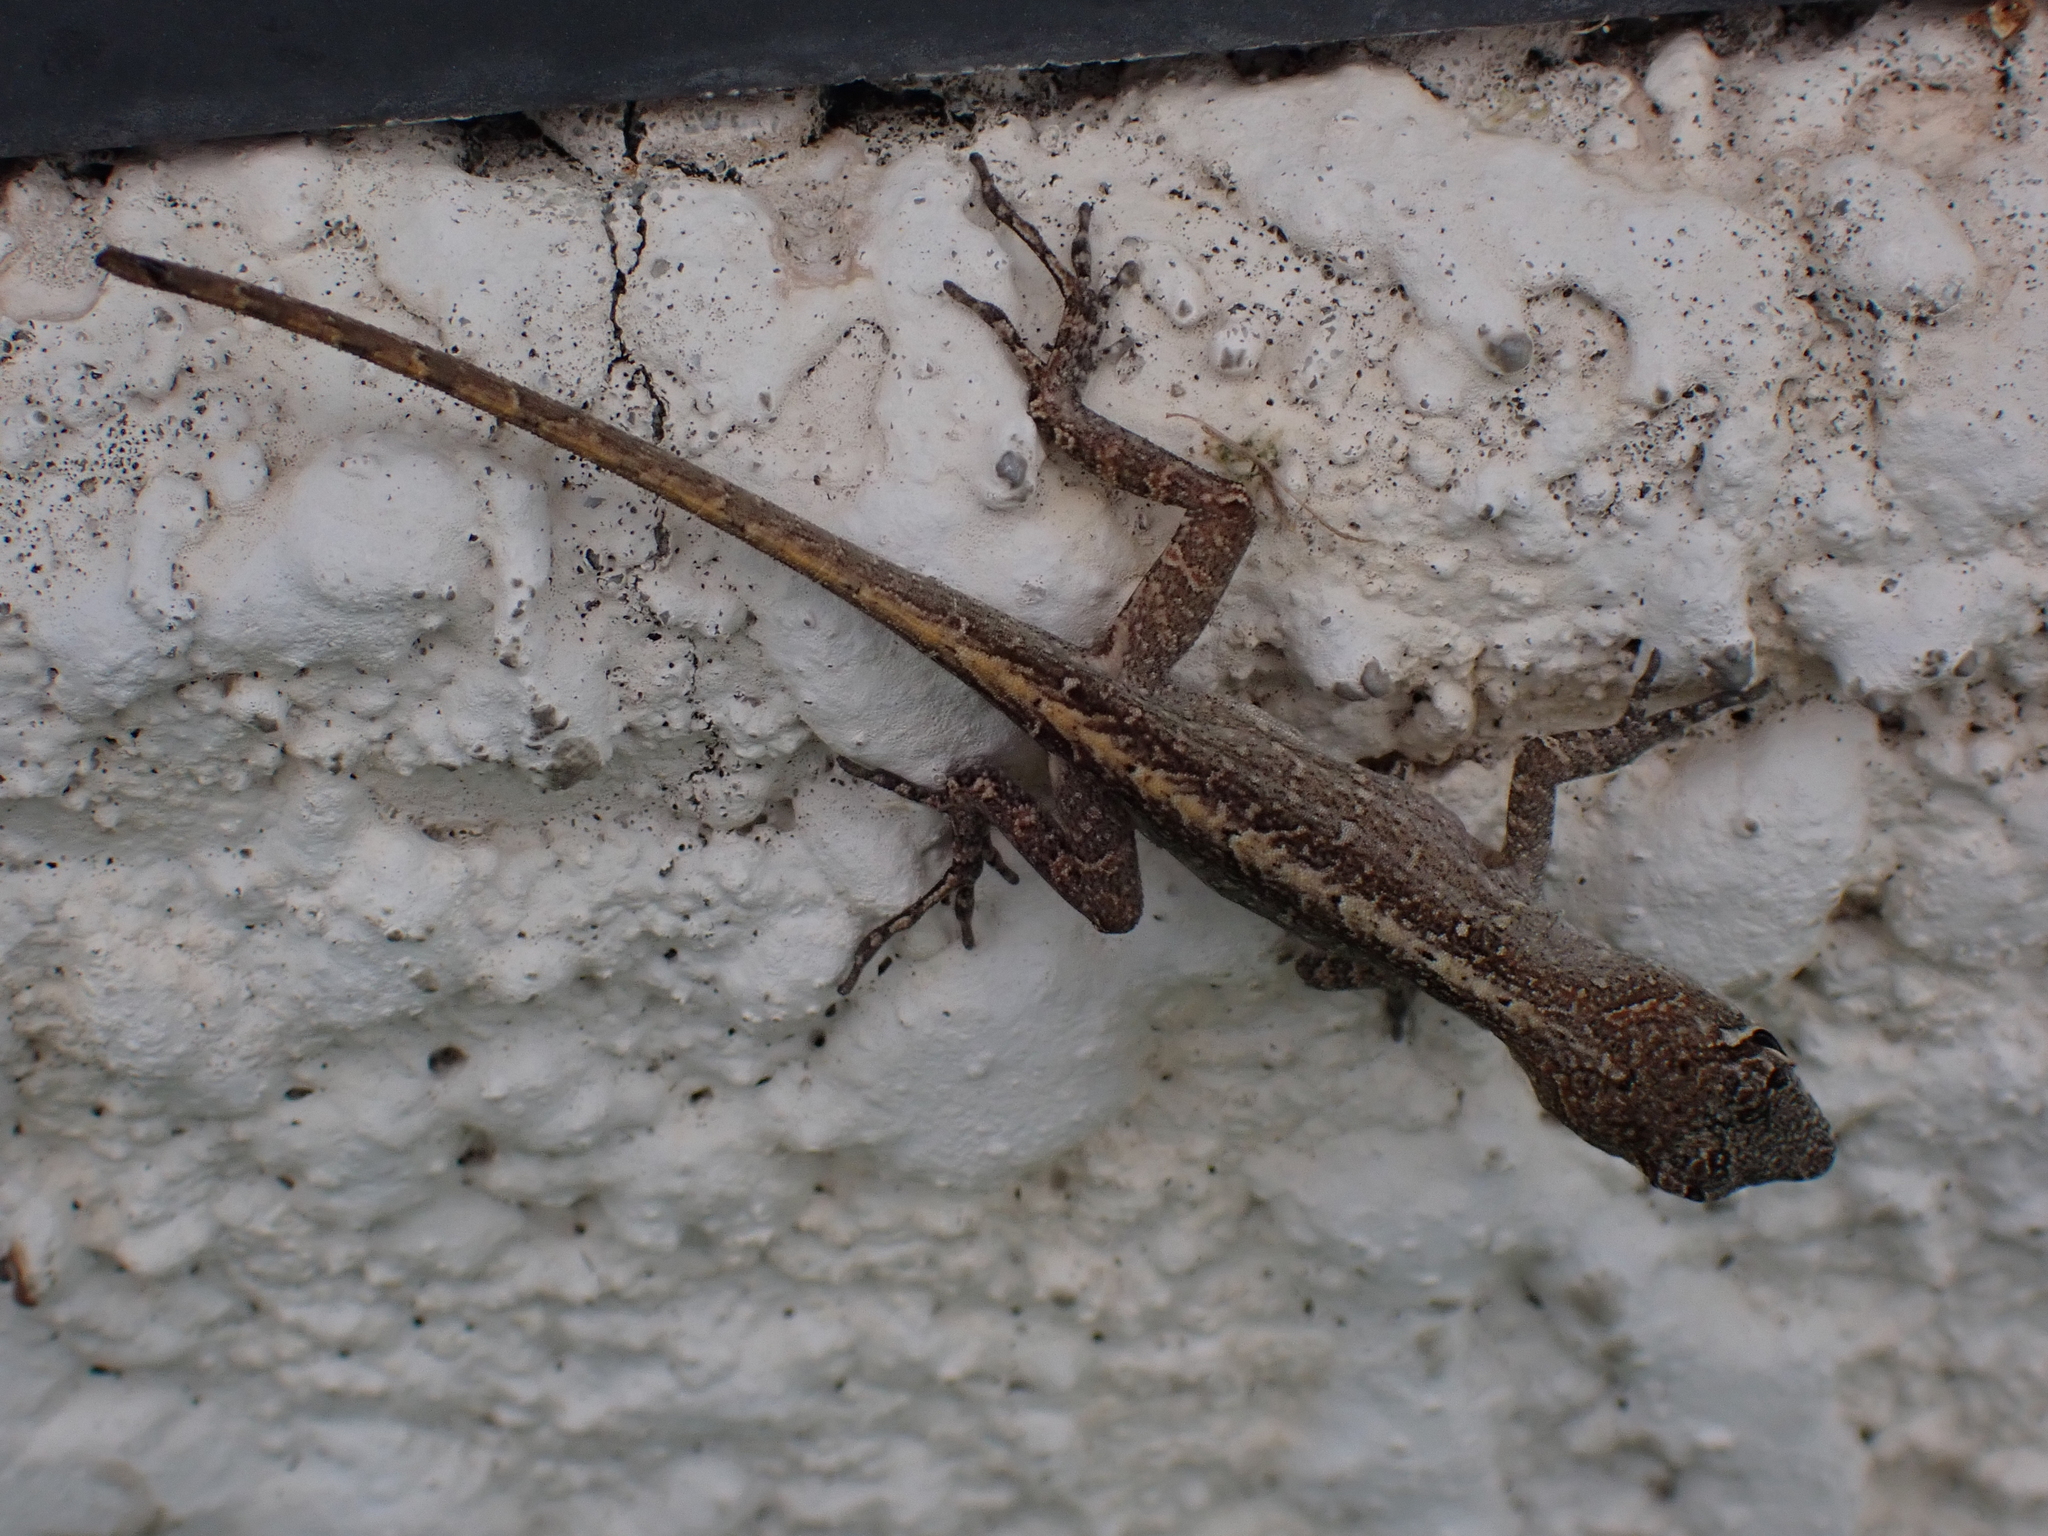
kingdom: Animalia
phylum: Chordata
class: Squamata
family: Dactyloidae
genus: Anolis
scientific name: Anolis sagrei
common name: Brown anole
